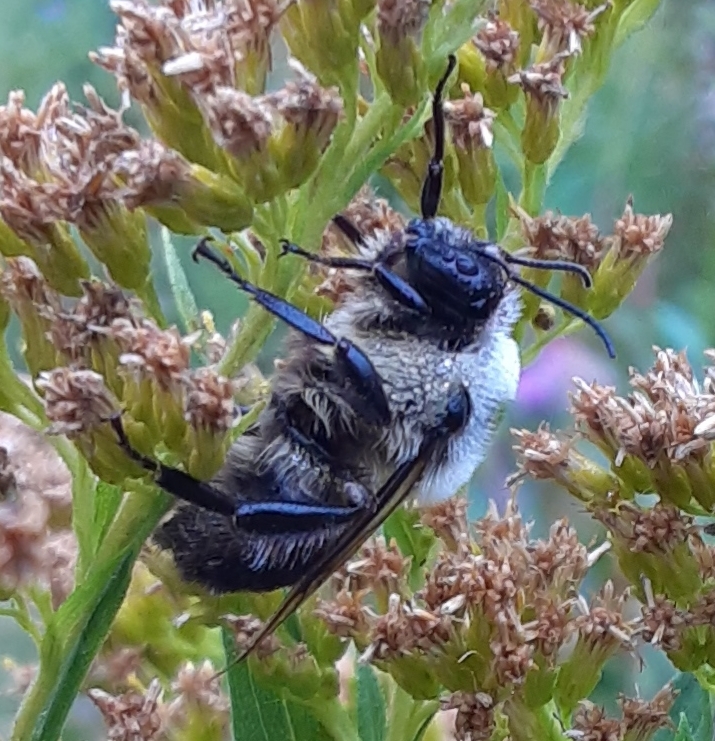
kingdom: Animalia
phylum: Arthropoda
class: Insecta
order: Hymenoptera
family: Apidae
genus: Bombus
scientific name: Bombus griseocollis
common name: Brown-belted bumble bee
